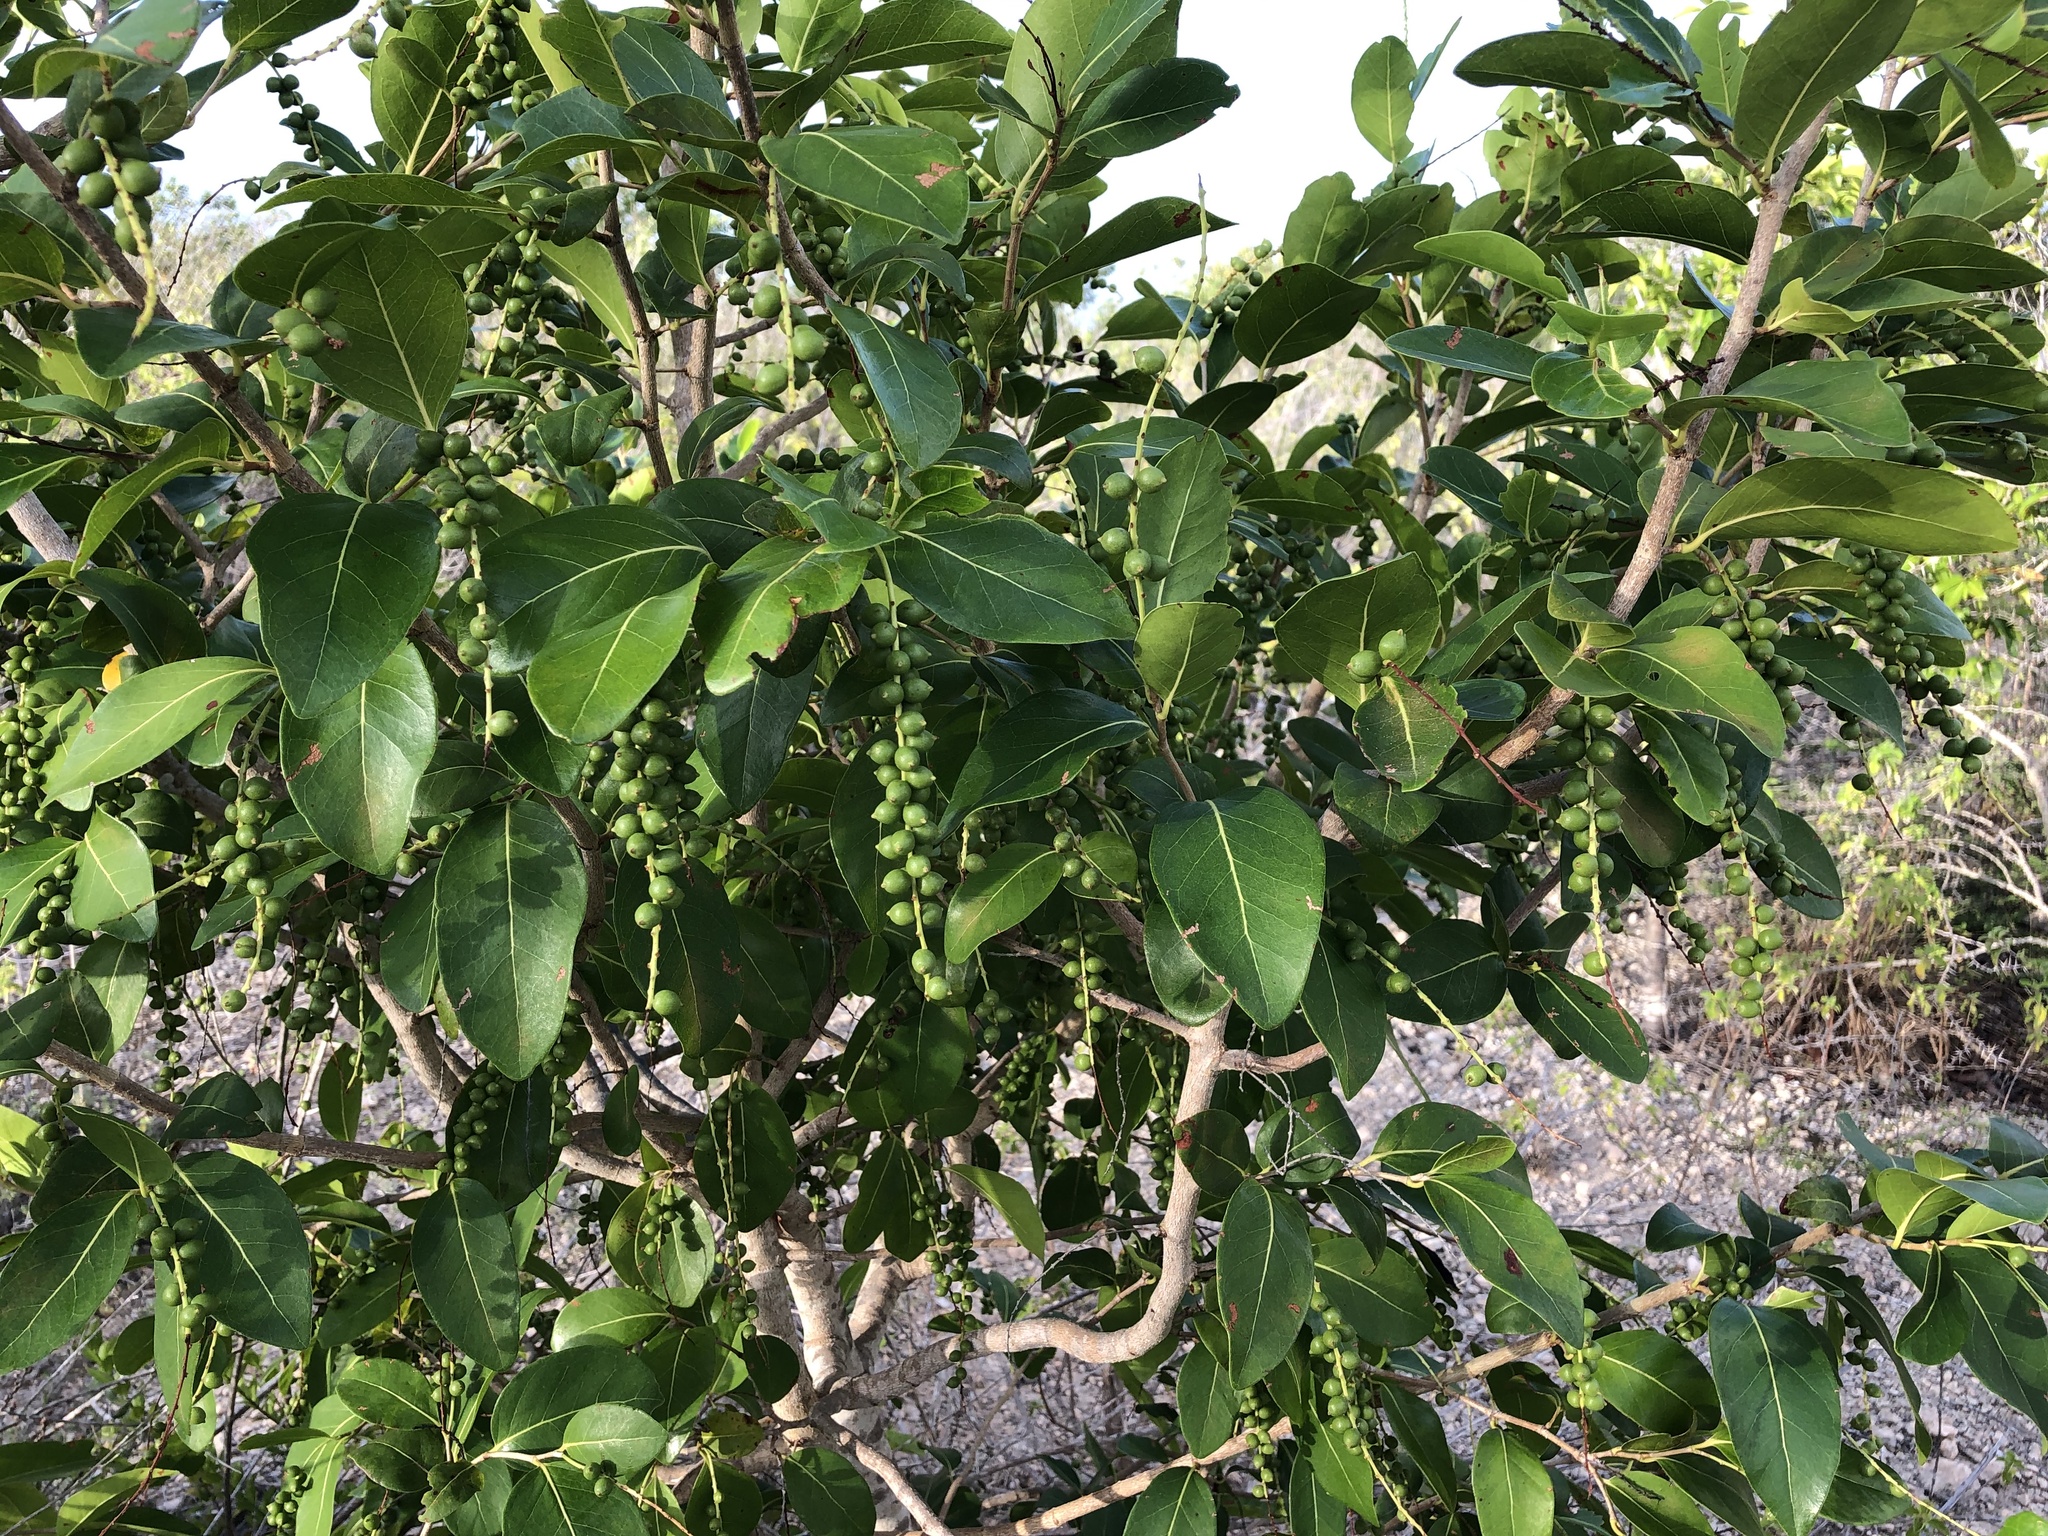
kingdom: Plantae
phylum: Tracheophyta
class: Magnoliopsida
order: Caryophyllales
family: Polygonaceae
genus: Coccoloba
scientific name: Coccoloba swartzii
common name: Red wood
